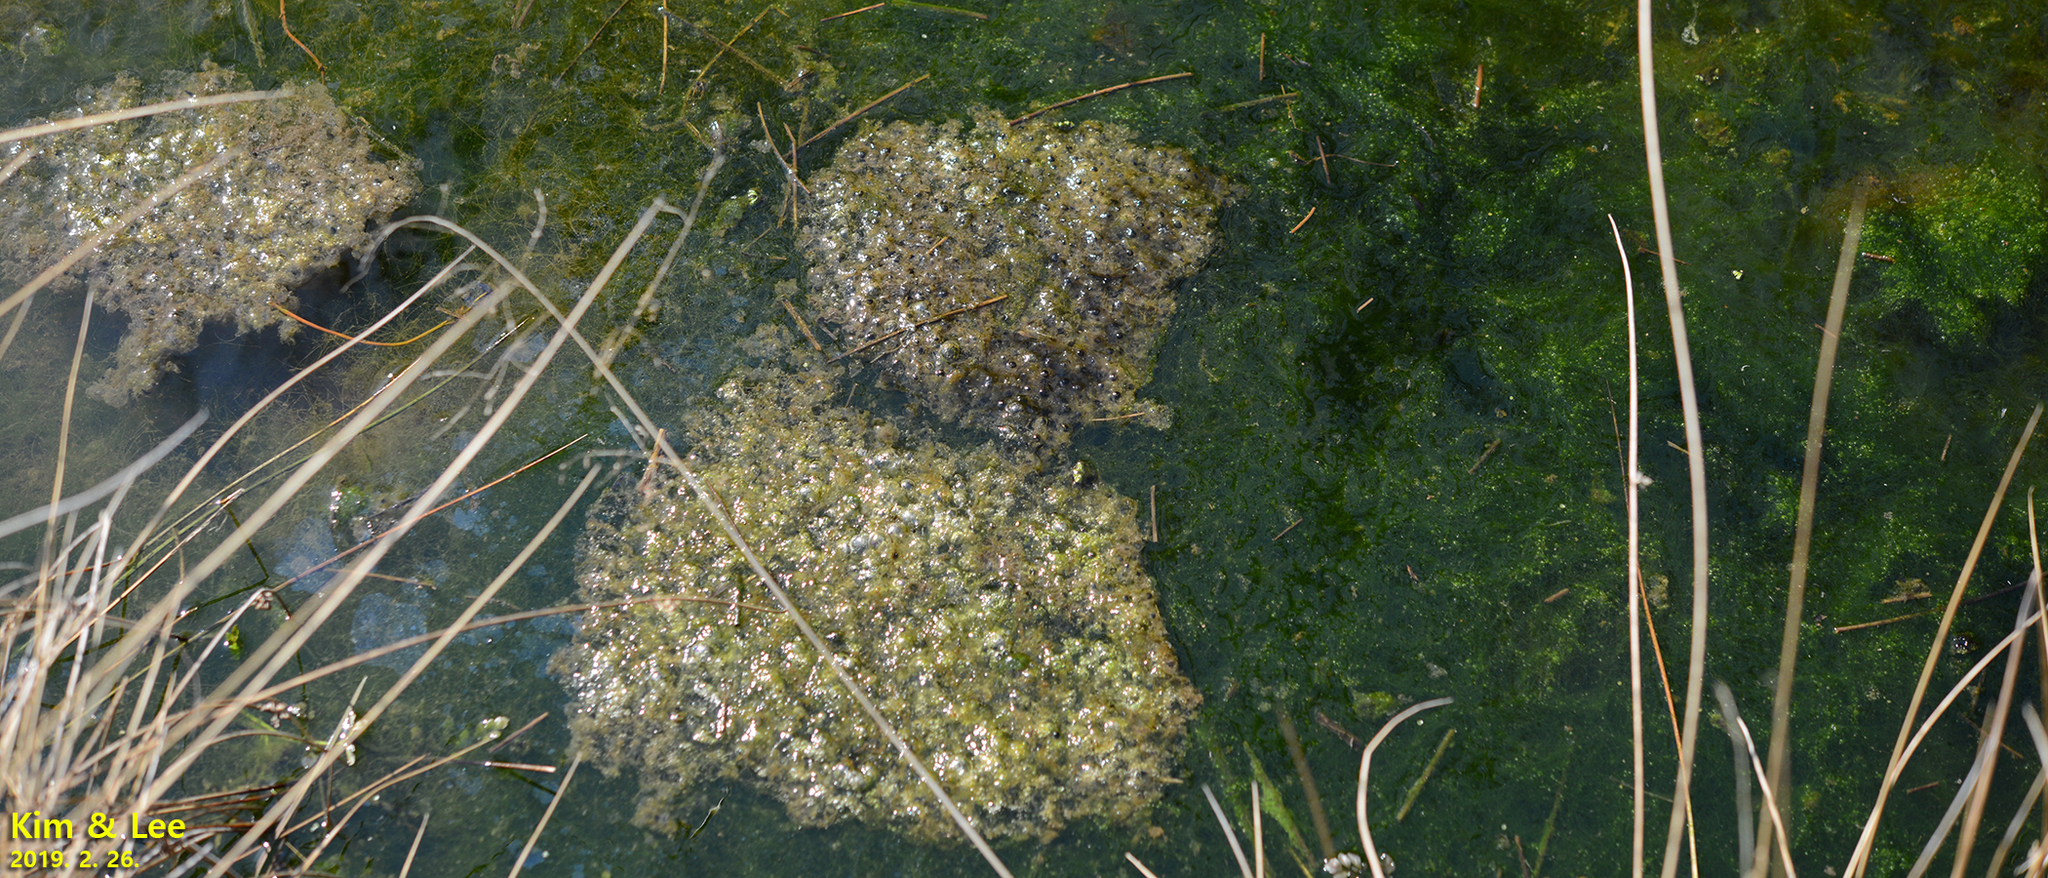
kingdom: Animalia
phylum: Chordata
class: Amphibia
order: Anura
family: Ranidae
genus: Rana
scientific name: Rana uenoi
